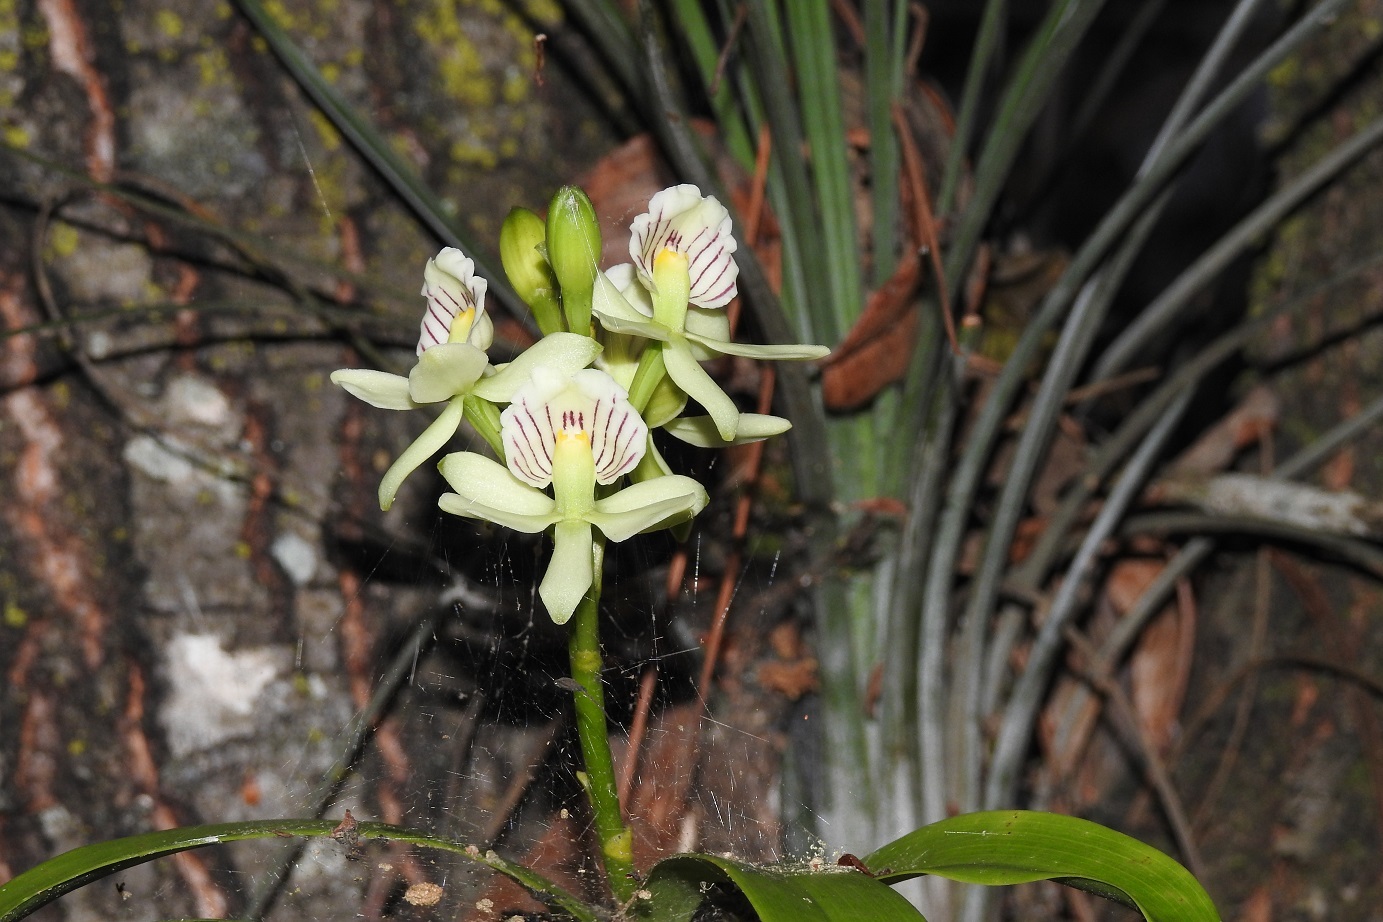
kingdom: Plantae
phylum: Tracheophyta
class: Liliopsida
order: Asparagales
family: Orchidaceae
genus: Prosthechea
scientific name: Prosthechea radiata
